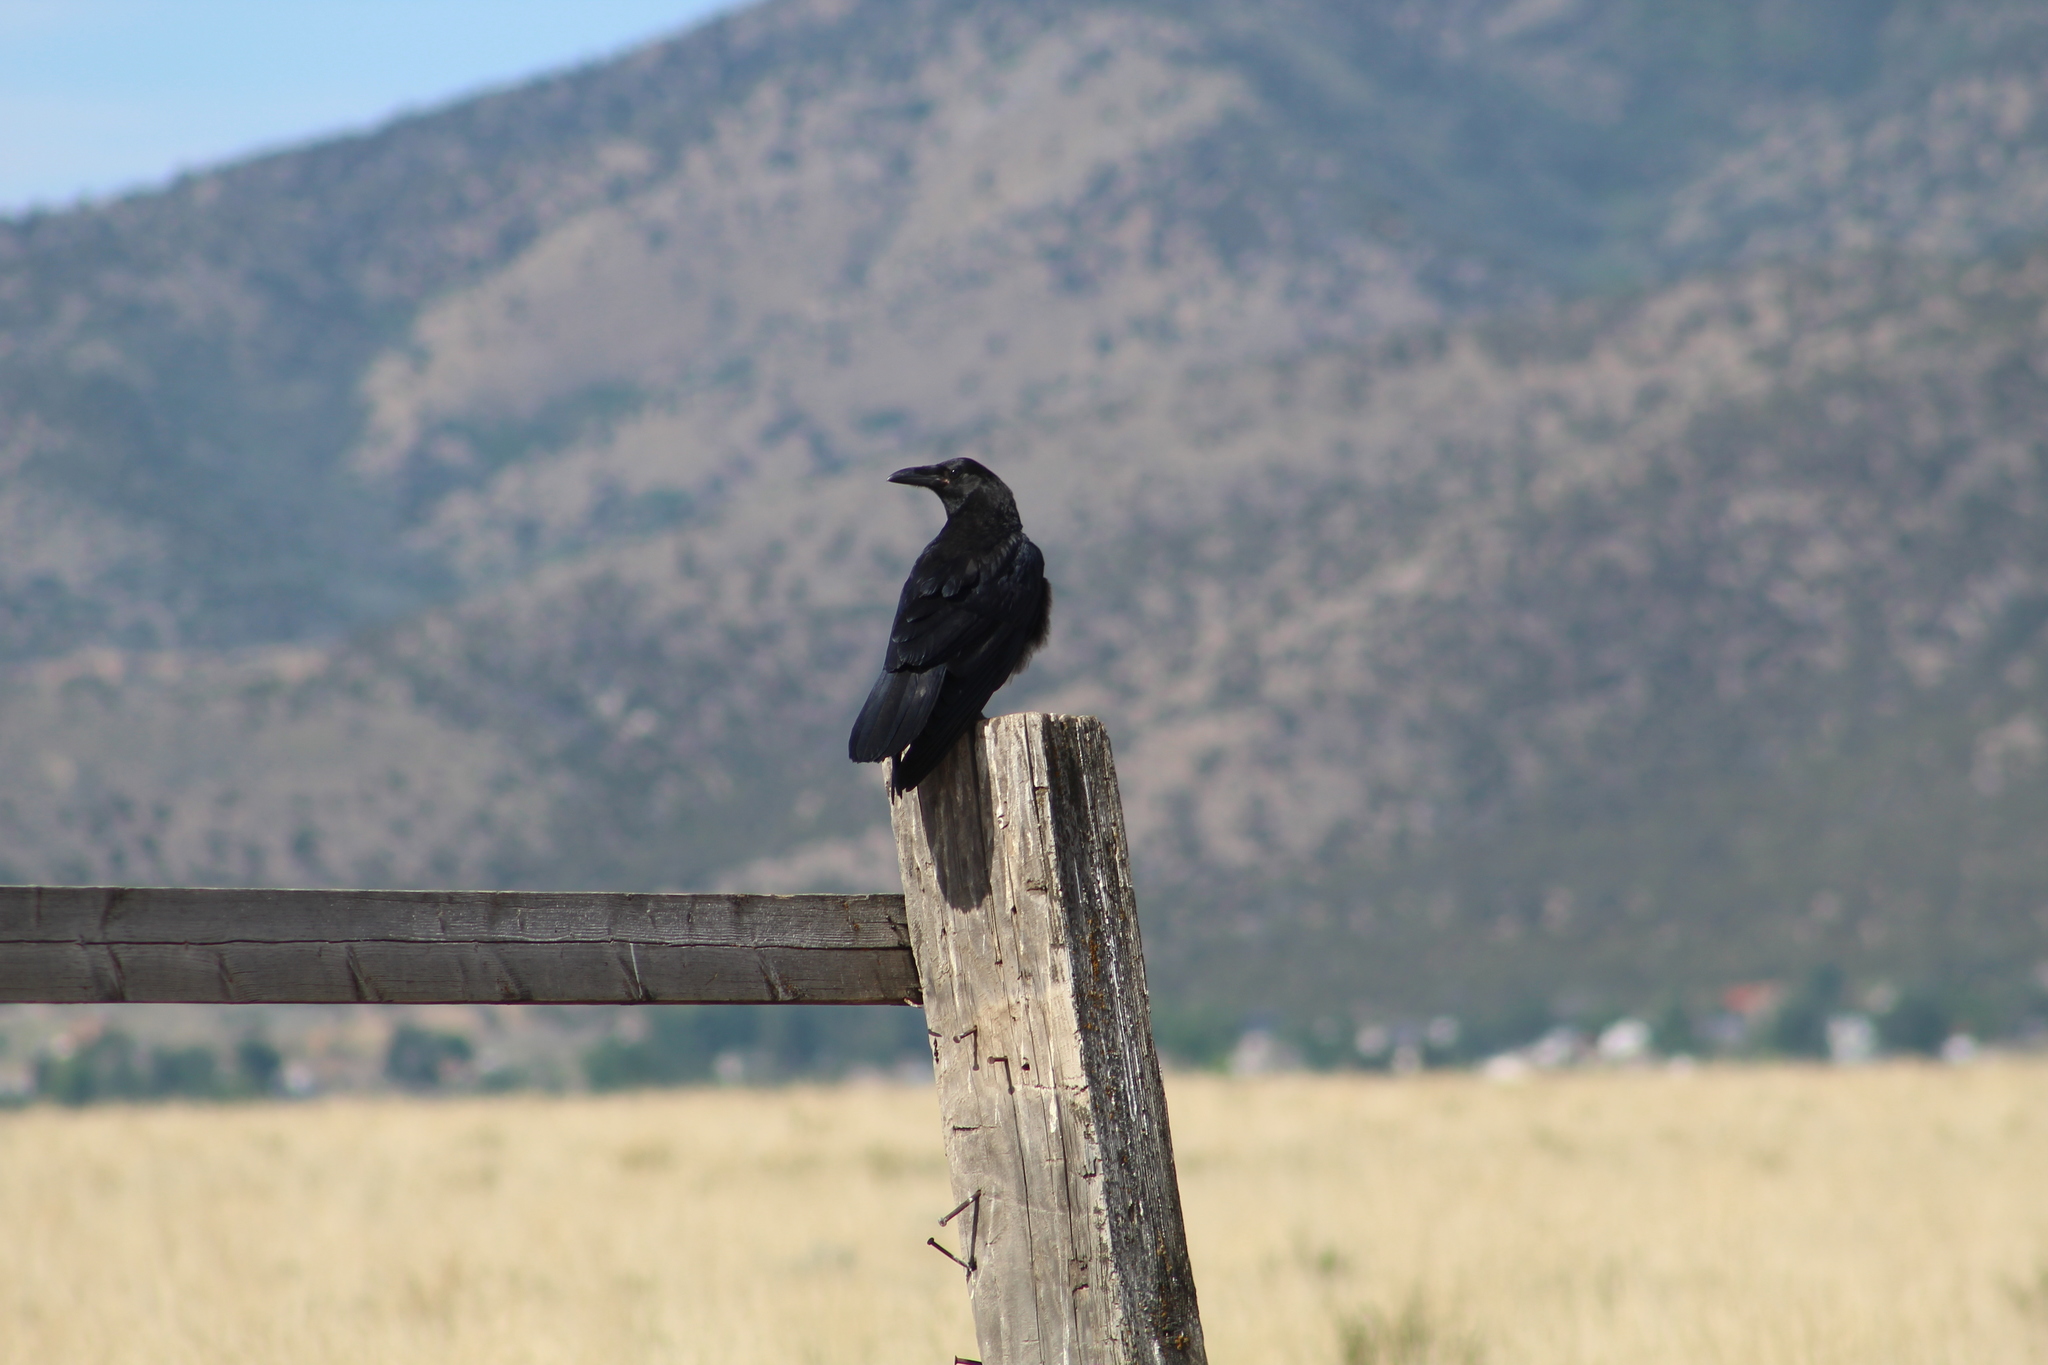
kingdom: Animalia
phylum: Chordata
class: Aves
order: Passeriformes
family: Corvidae
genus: Corvus
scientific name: Corvus corax
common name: Common raven
